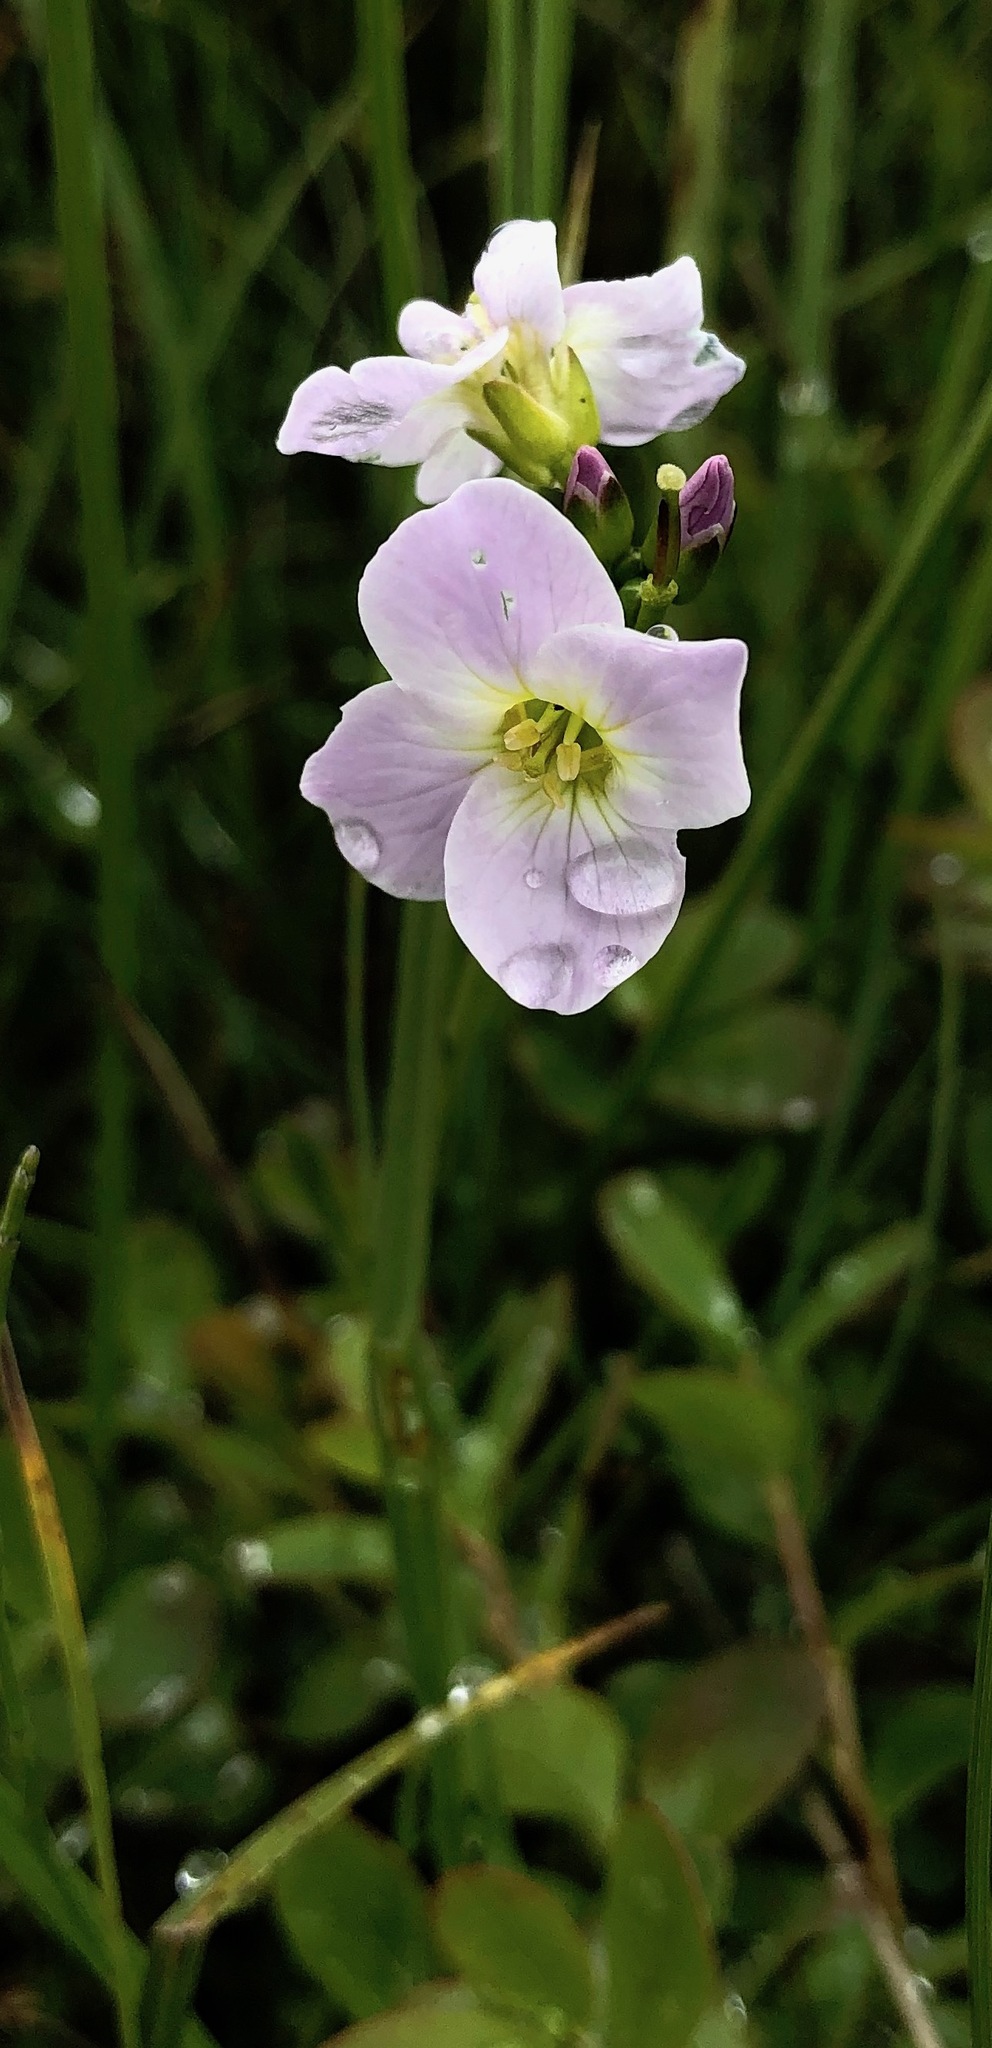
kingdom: Plantae
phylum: Tracheophyta
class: Magnoliopsida
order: Brassicales
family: Brassicaceae
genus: Cardamine
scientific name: Cardamine nymanii
